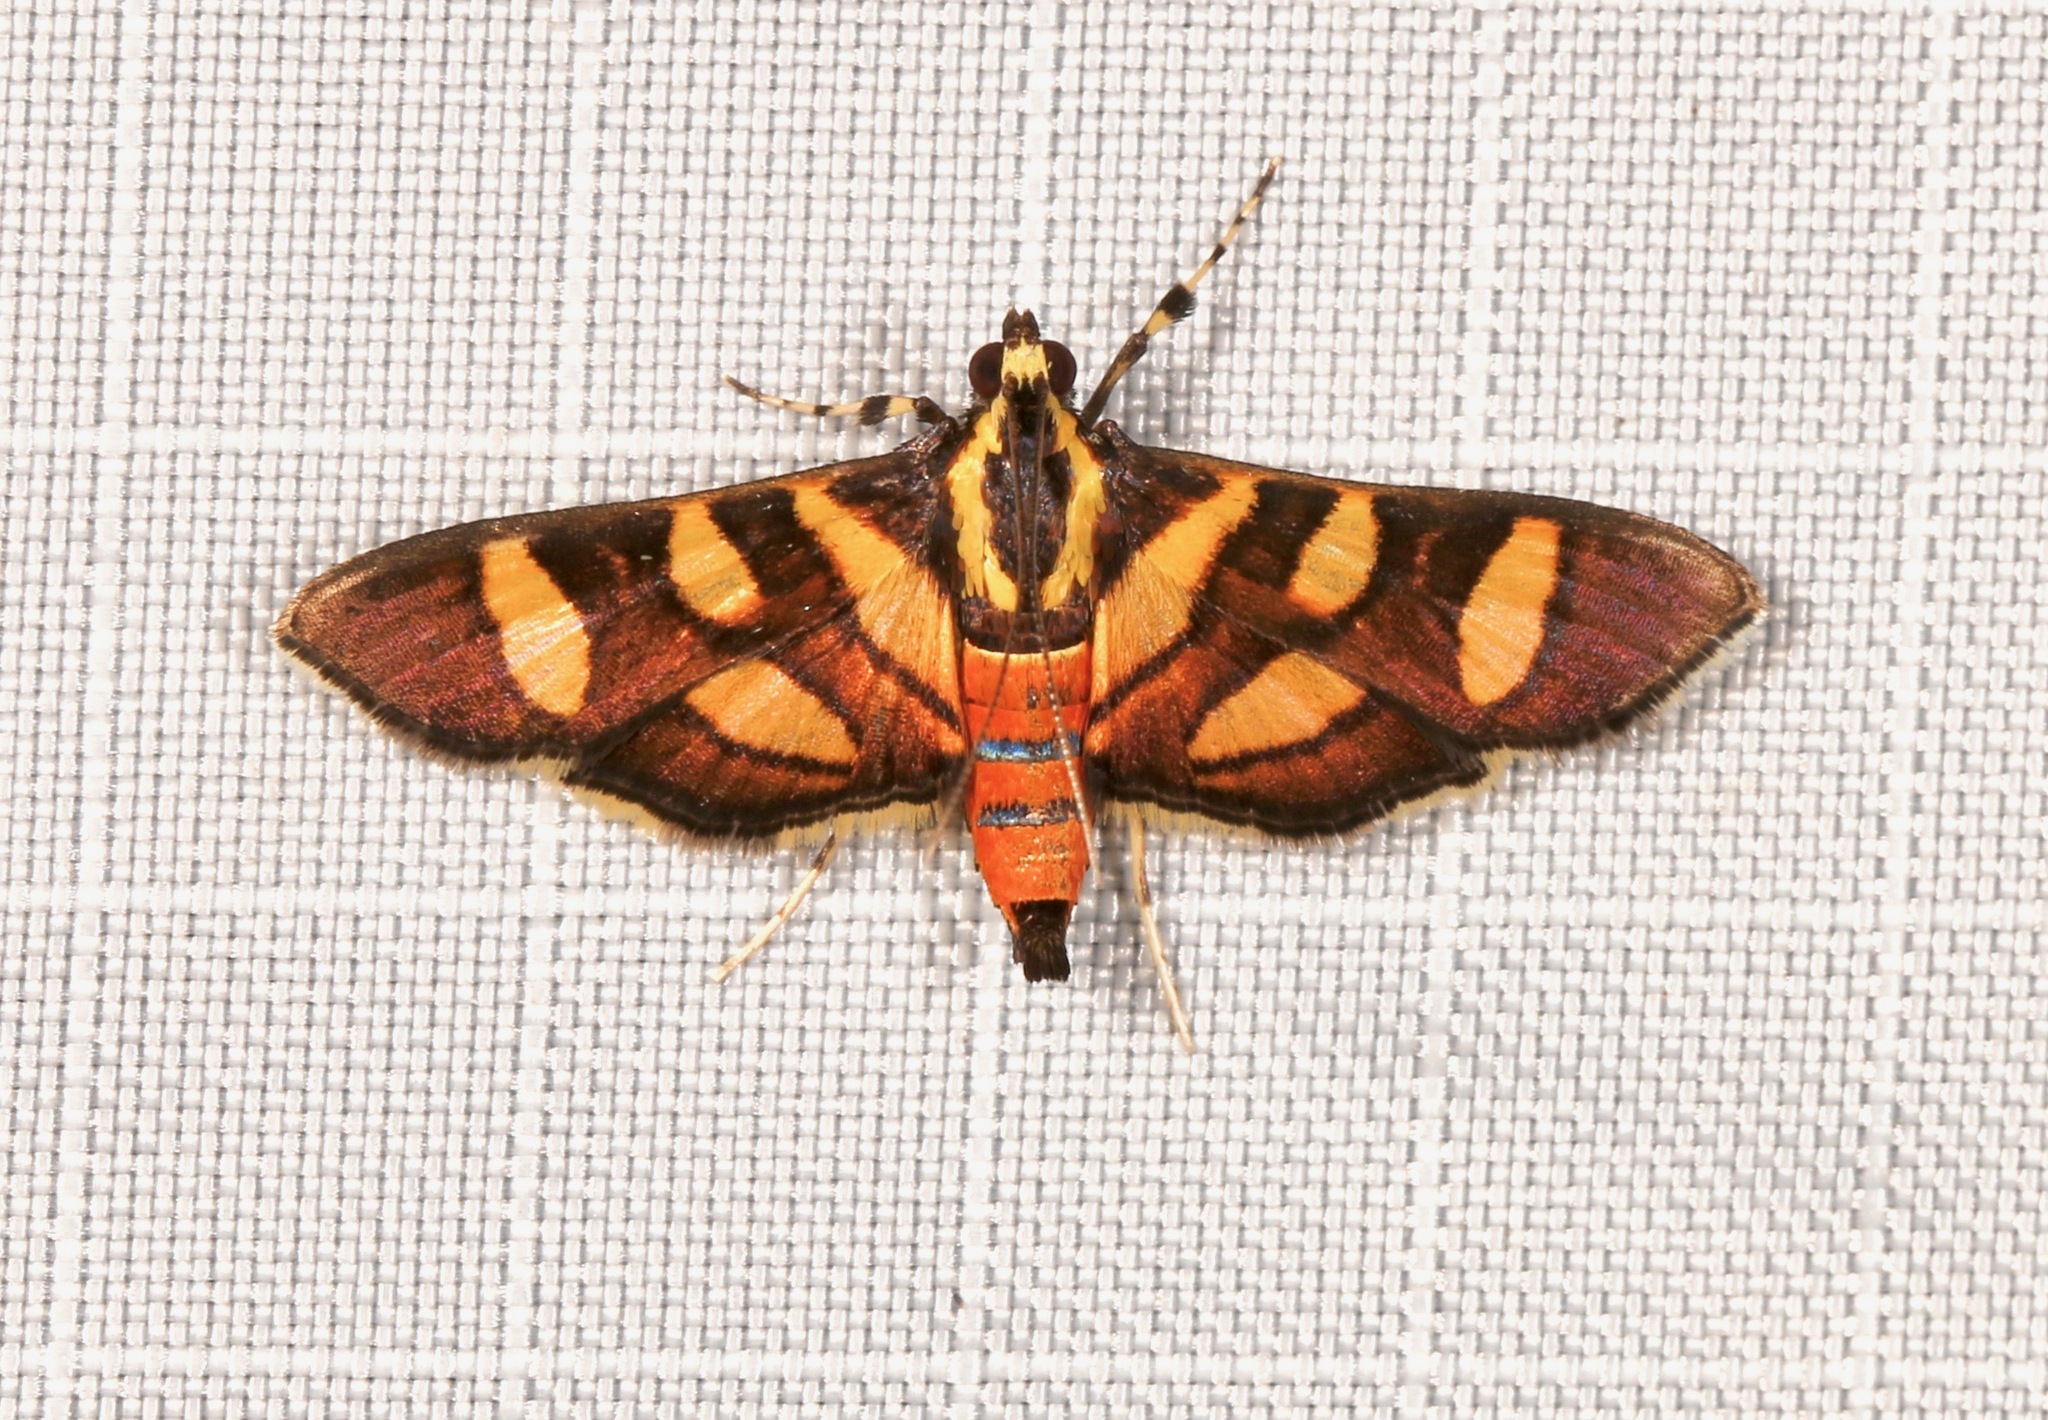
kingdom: Animalia
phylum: Arthropoda
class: Insecta
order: Lepidoptera
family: Crambidae
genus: Syngamia
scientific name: Syngamia florella
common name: Orange-spotted flower moth
